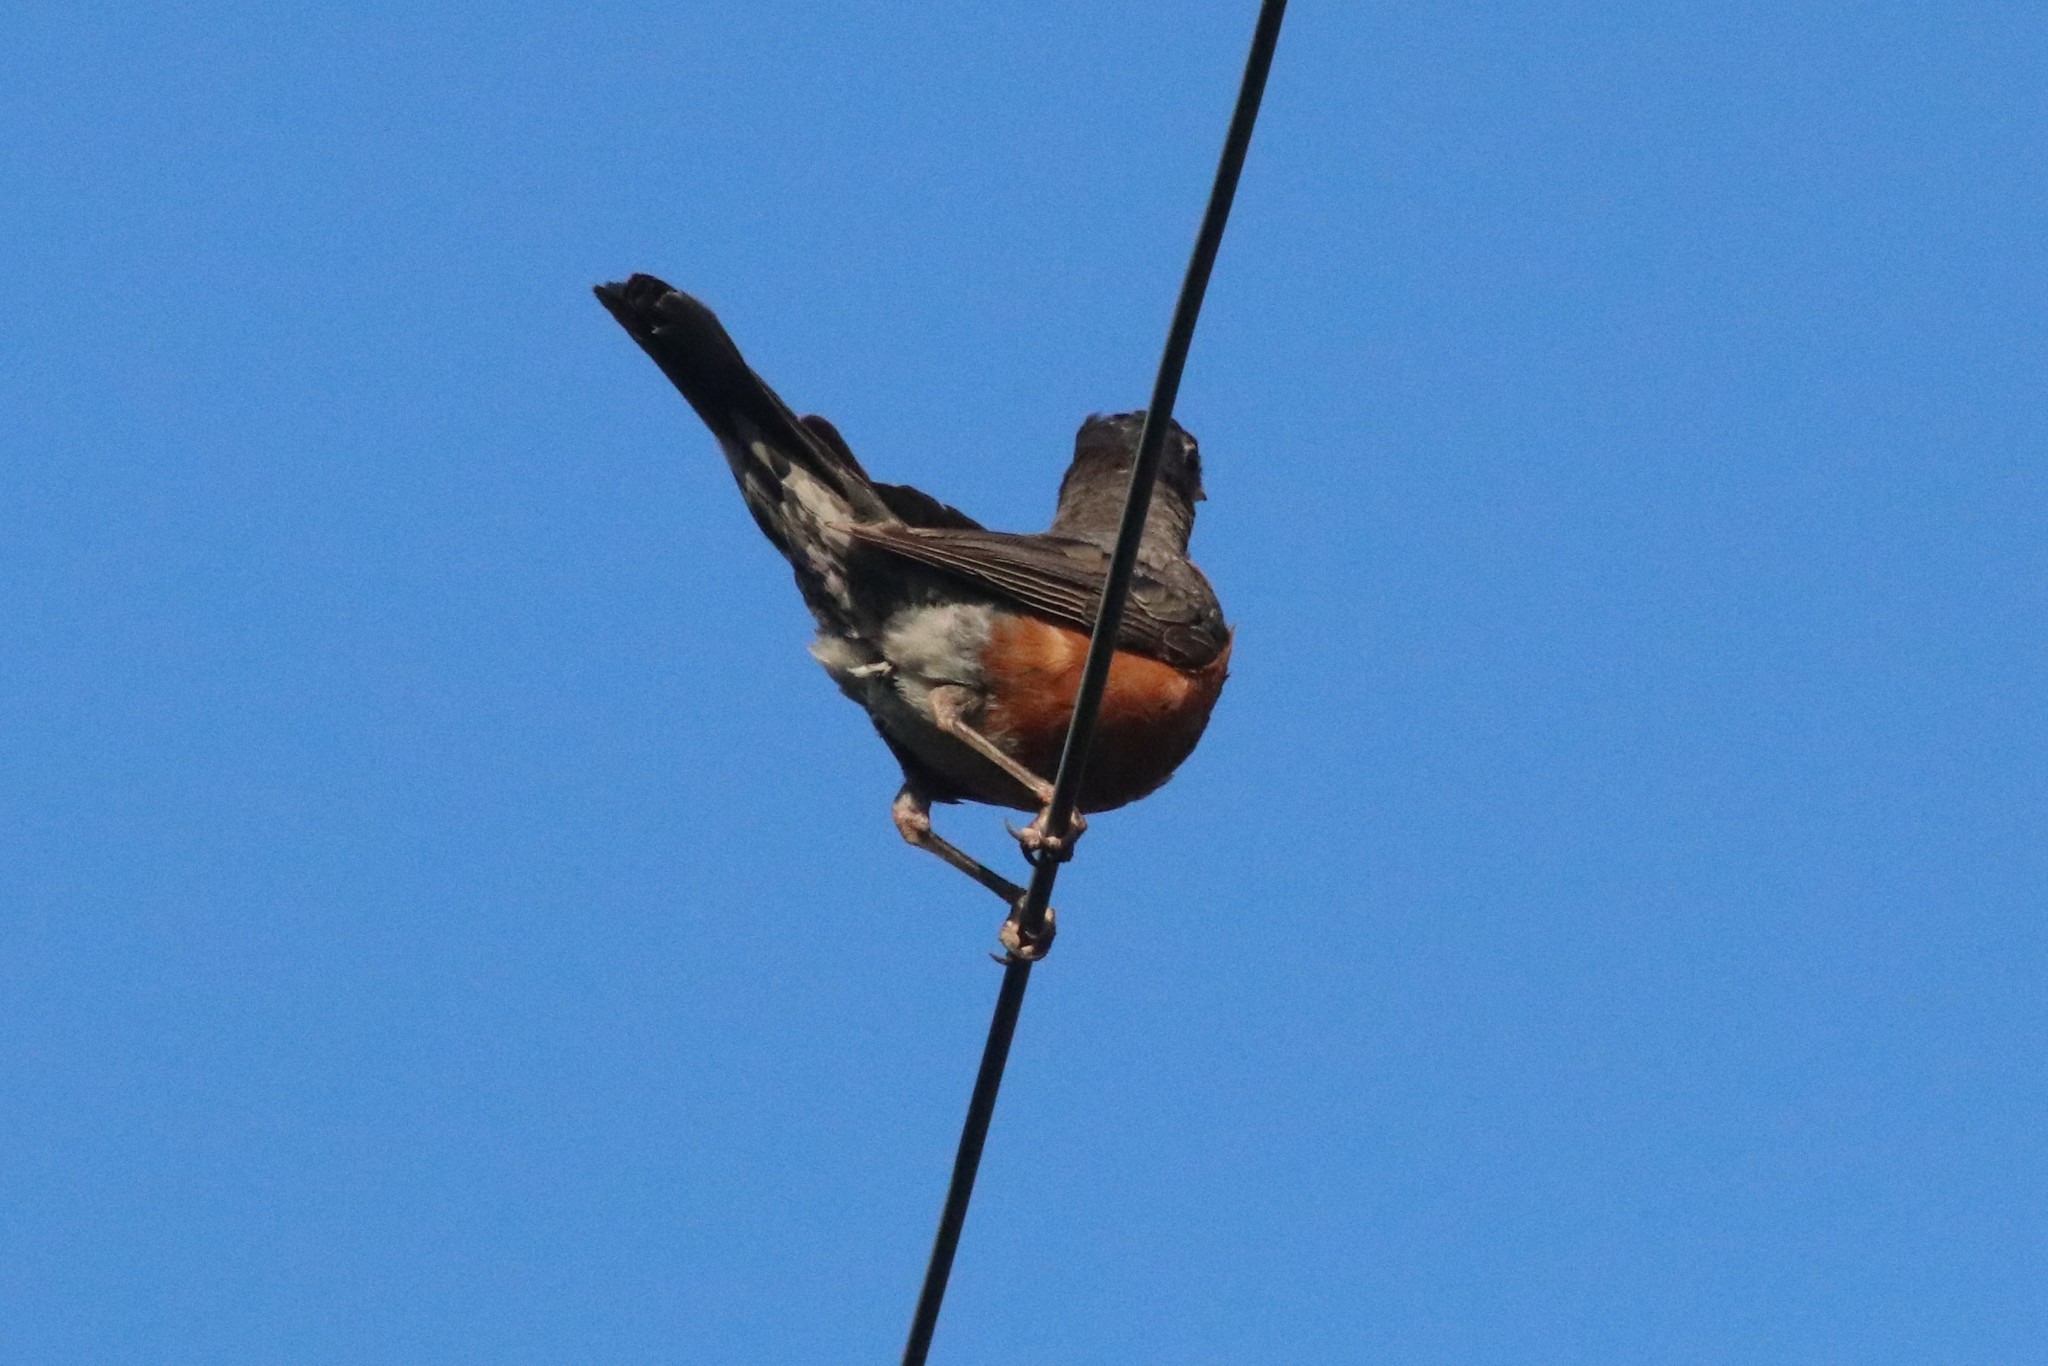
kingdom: Animalia
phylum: Chordata
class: Aves
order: Passeriformes
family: Turdidae
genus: Turdus
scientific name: Turdus migratorius
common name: American robin
